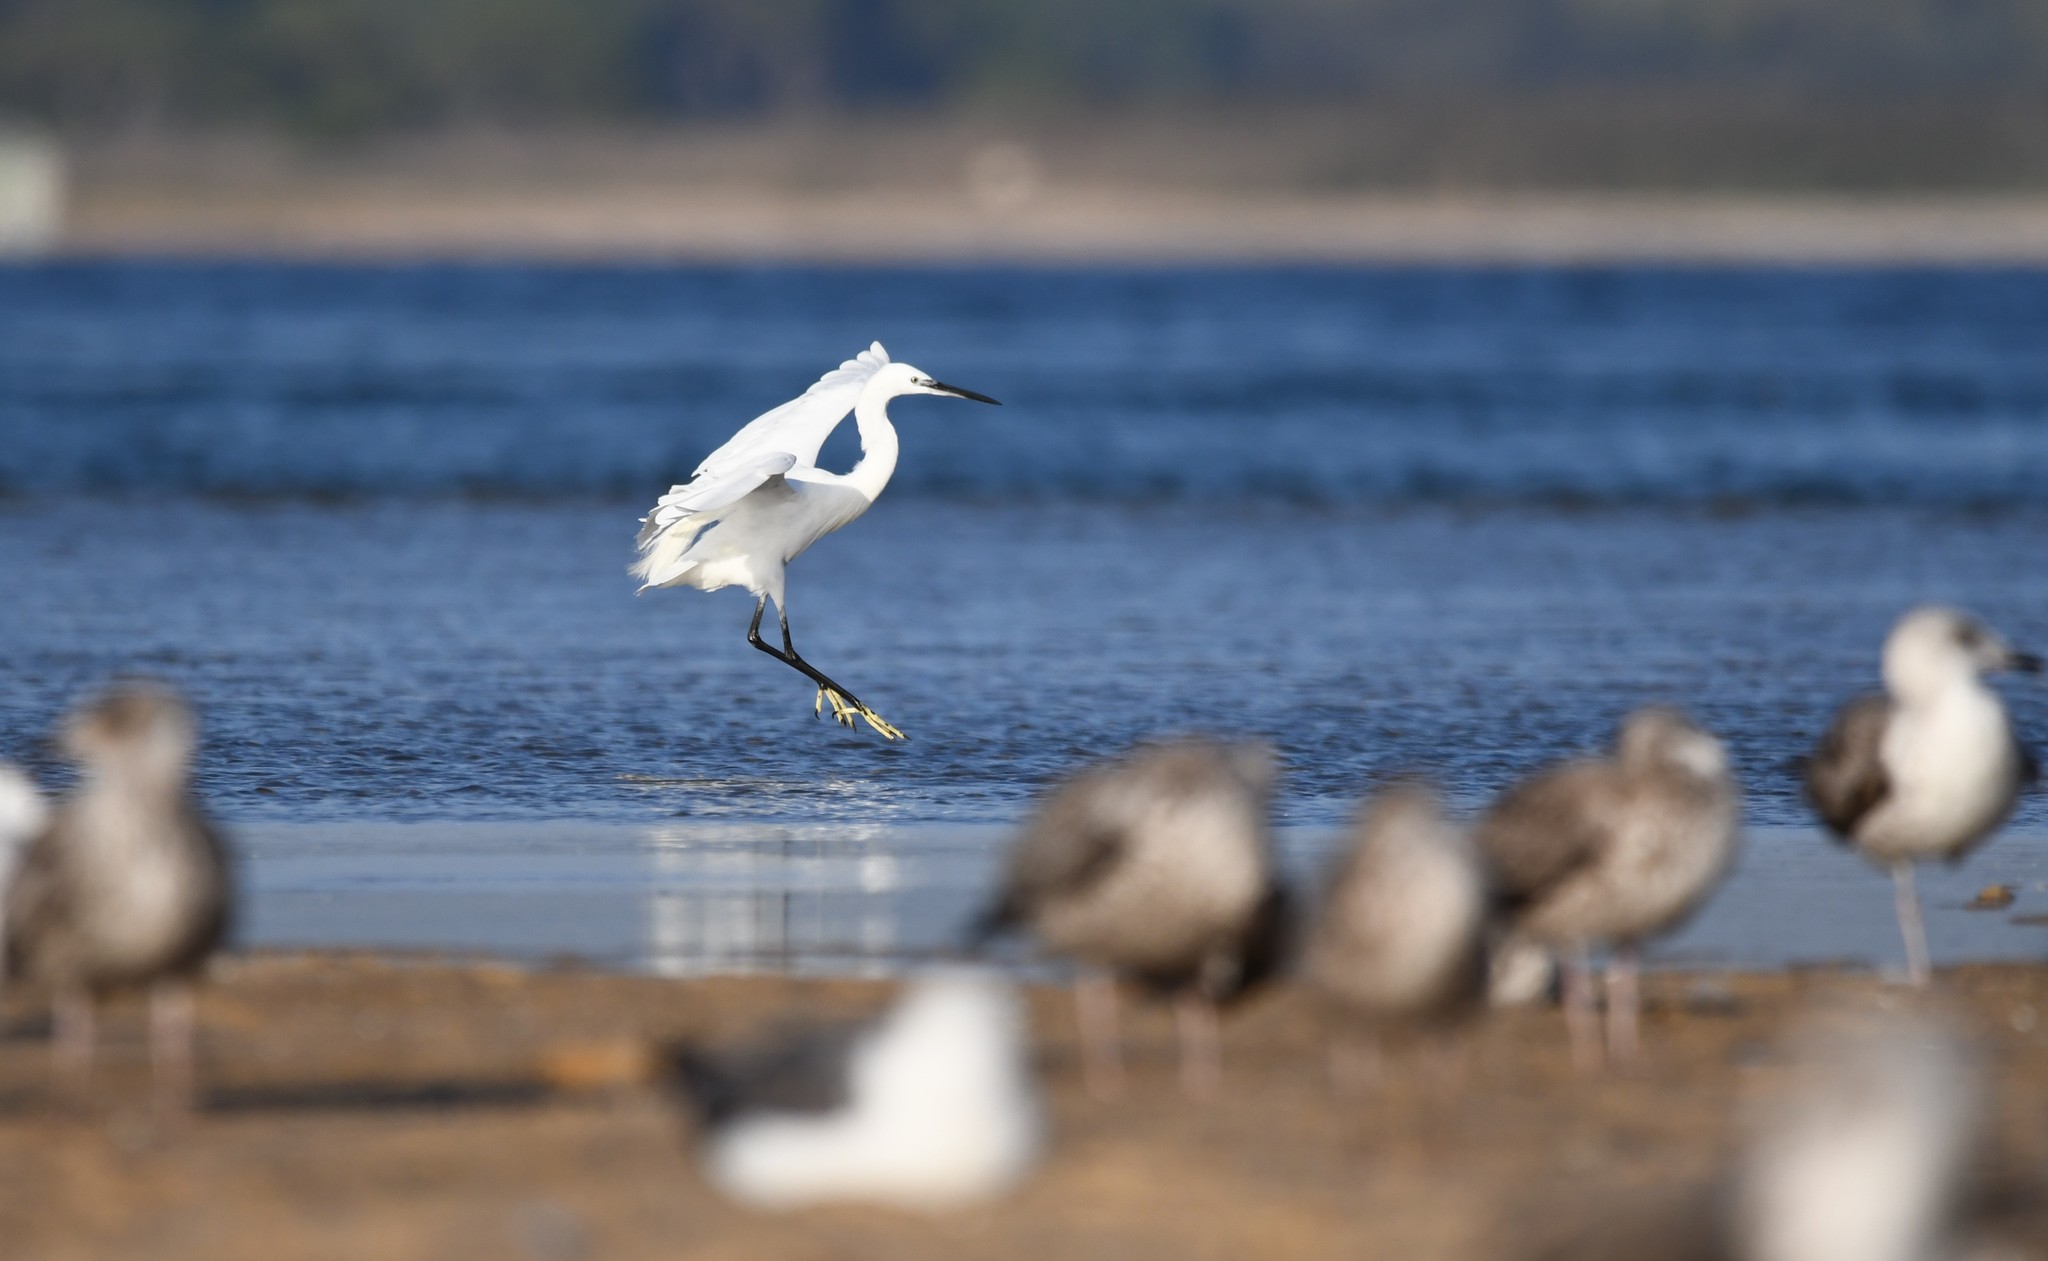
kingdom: Animalia
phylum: Chordata
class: Aves
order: Pelecaniformes
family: Ardeidae
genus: Egretta
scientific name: Egretta garzetta
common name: Little egret
